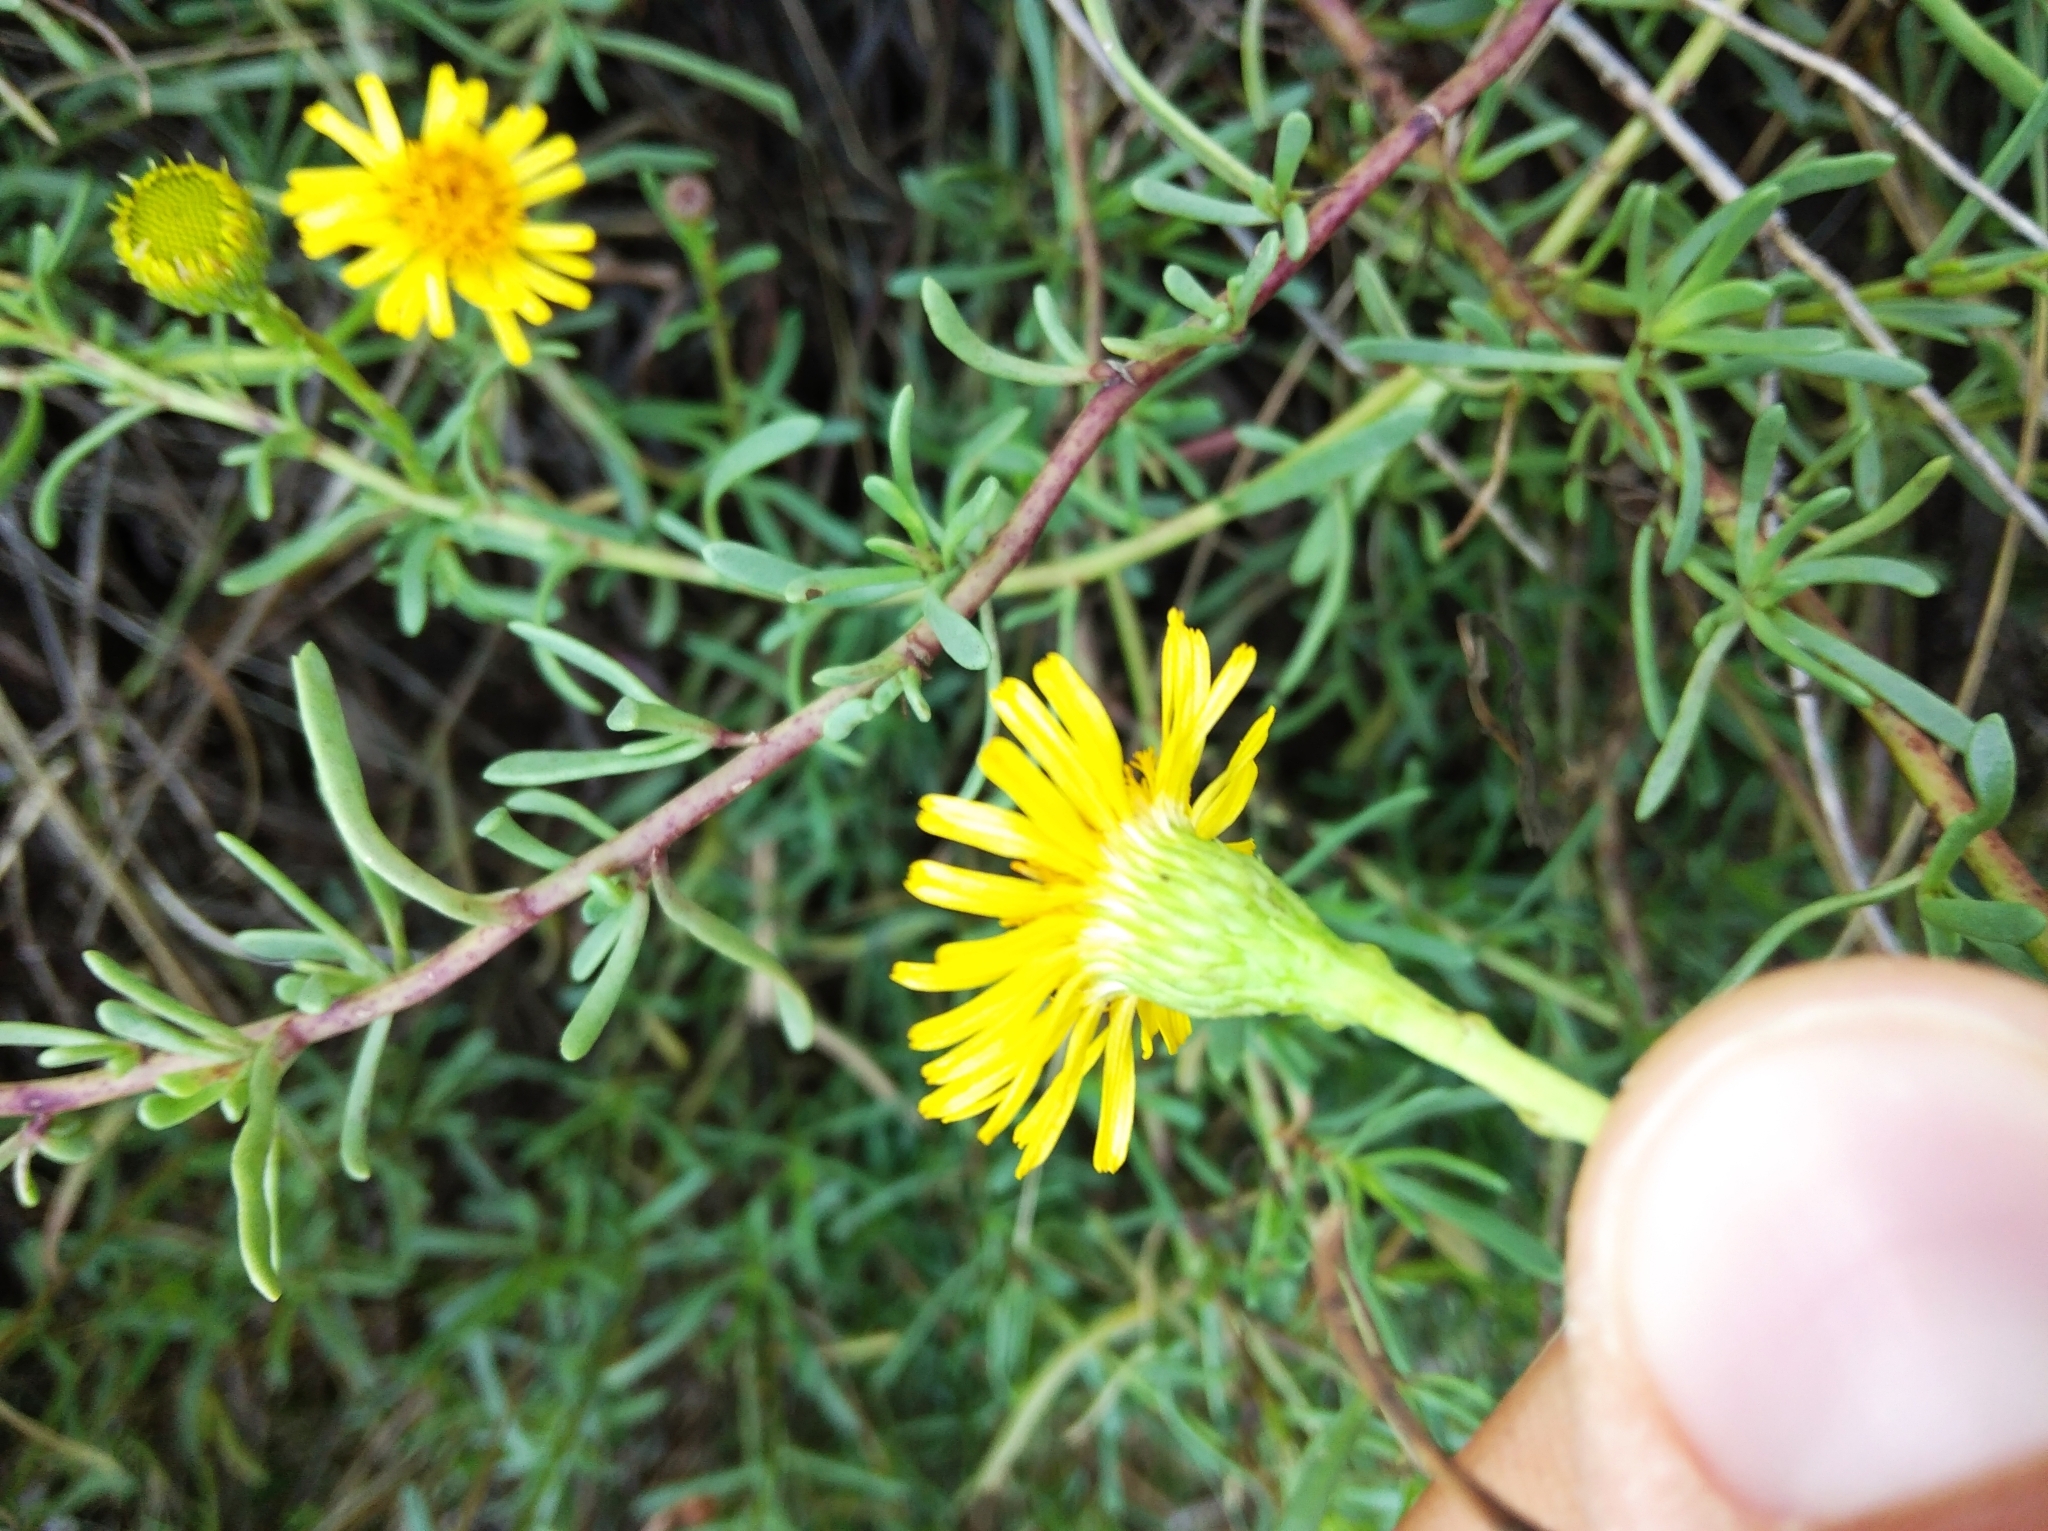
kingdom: Plantae
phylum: Tracheophyta
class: Magnoliopsida
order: Asterales
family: Asteraceae
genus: Limbarda
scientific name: Limbarda crithmoides
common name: Golden samphire
